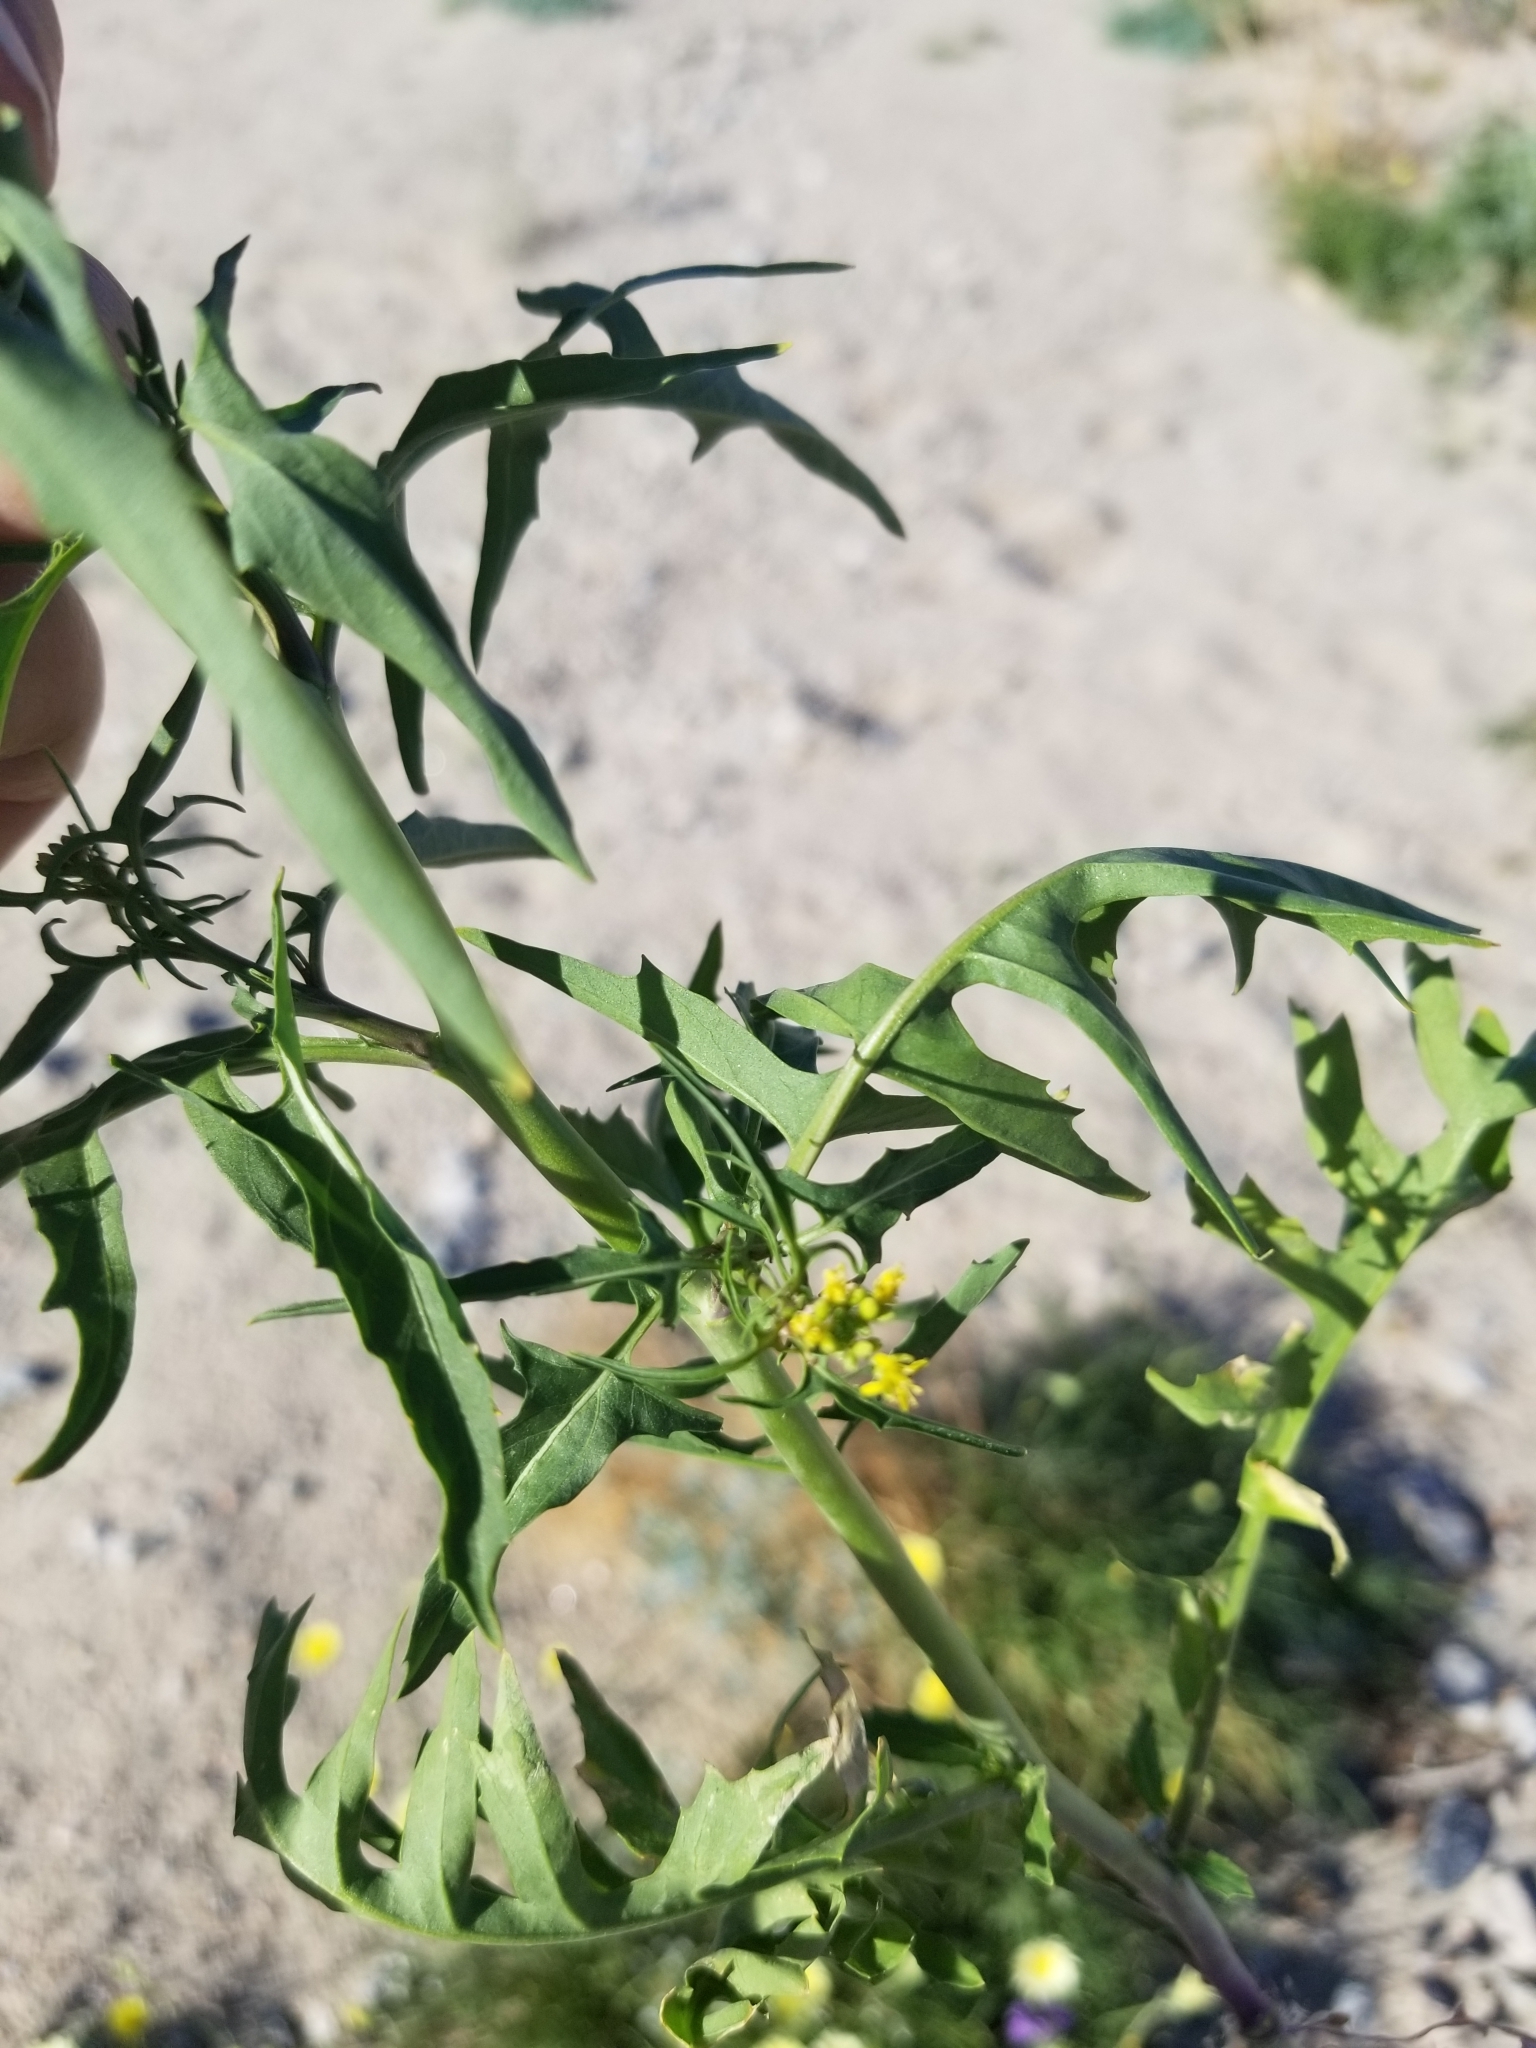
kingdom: Plantae
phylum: Tracheophyta
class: Magnoliopsida
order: Brassicales
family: Brassicaceae
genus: Sisymbrium
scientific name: Sisymbrium irio
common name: London rocket
